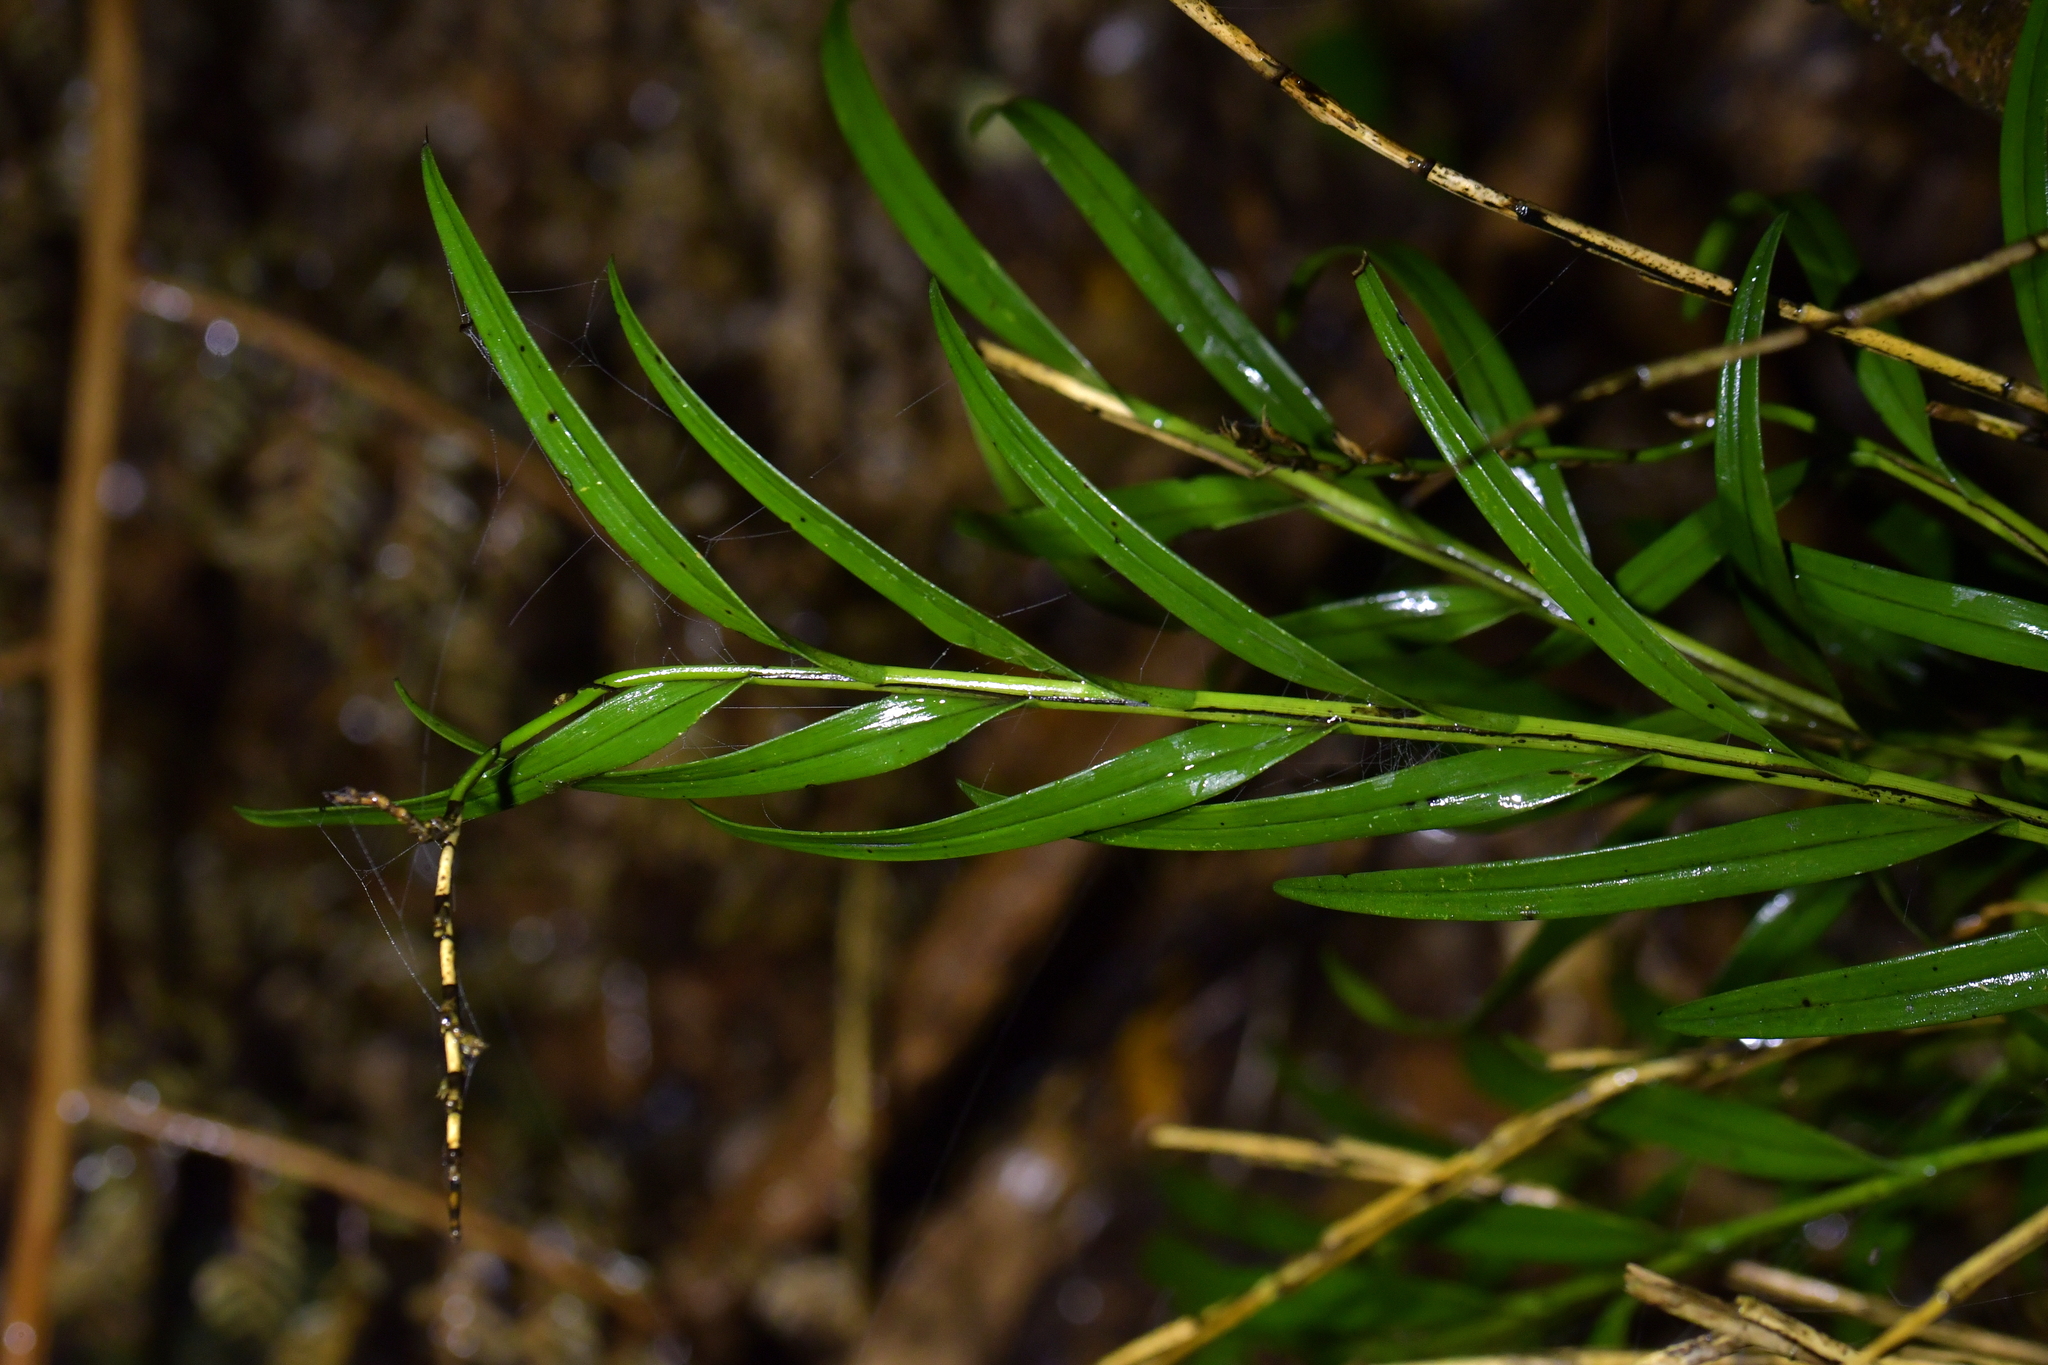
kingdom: Plantae
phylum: Tracheophyta
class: Liliopsida
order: Asparagales
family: Orchidaceae
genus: Earina
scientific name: Earina autumnalis
